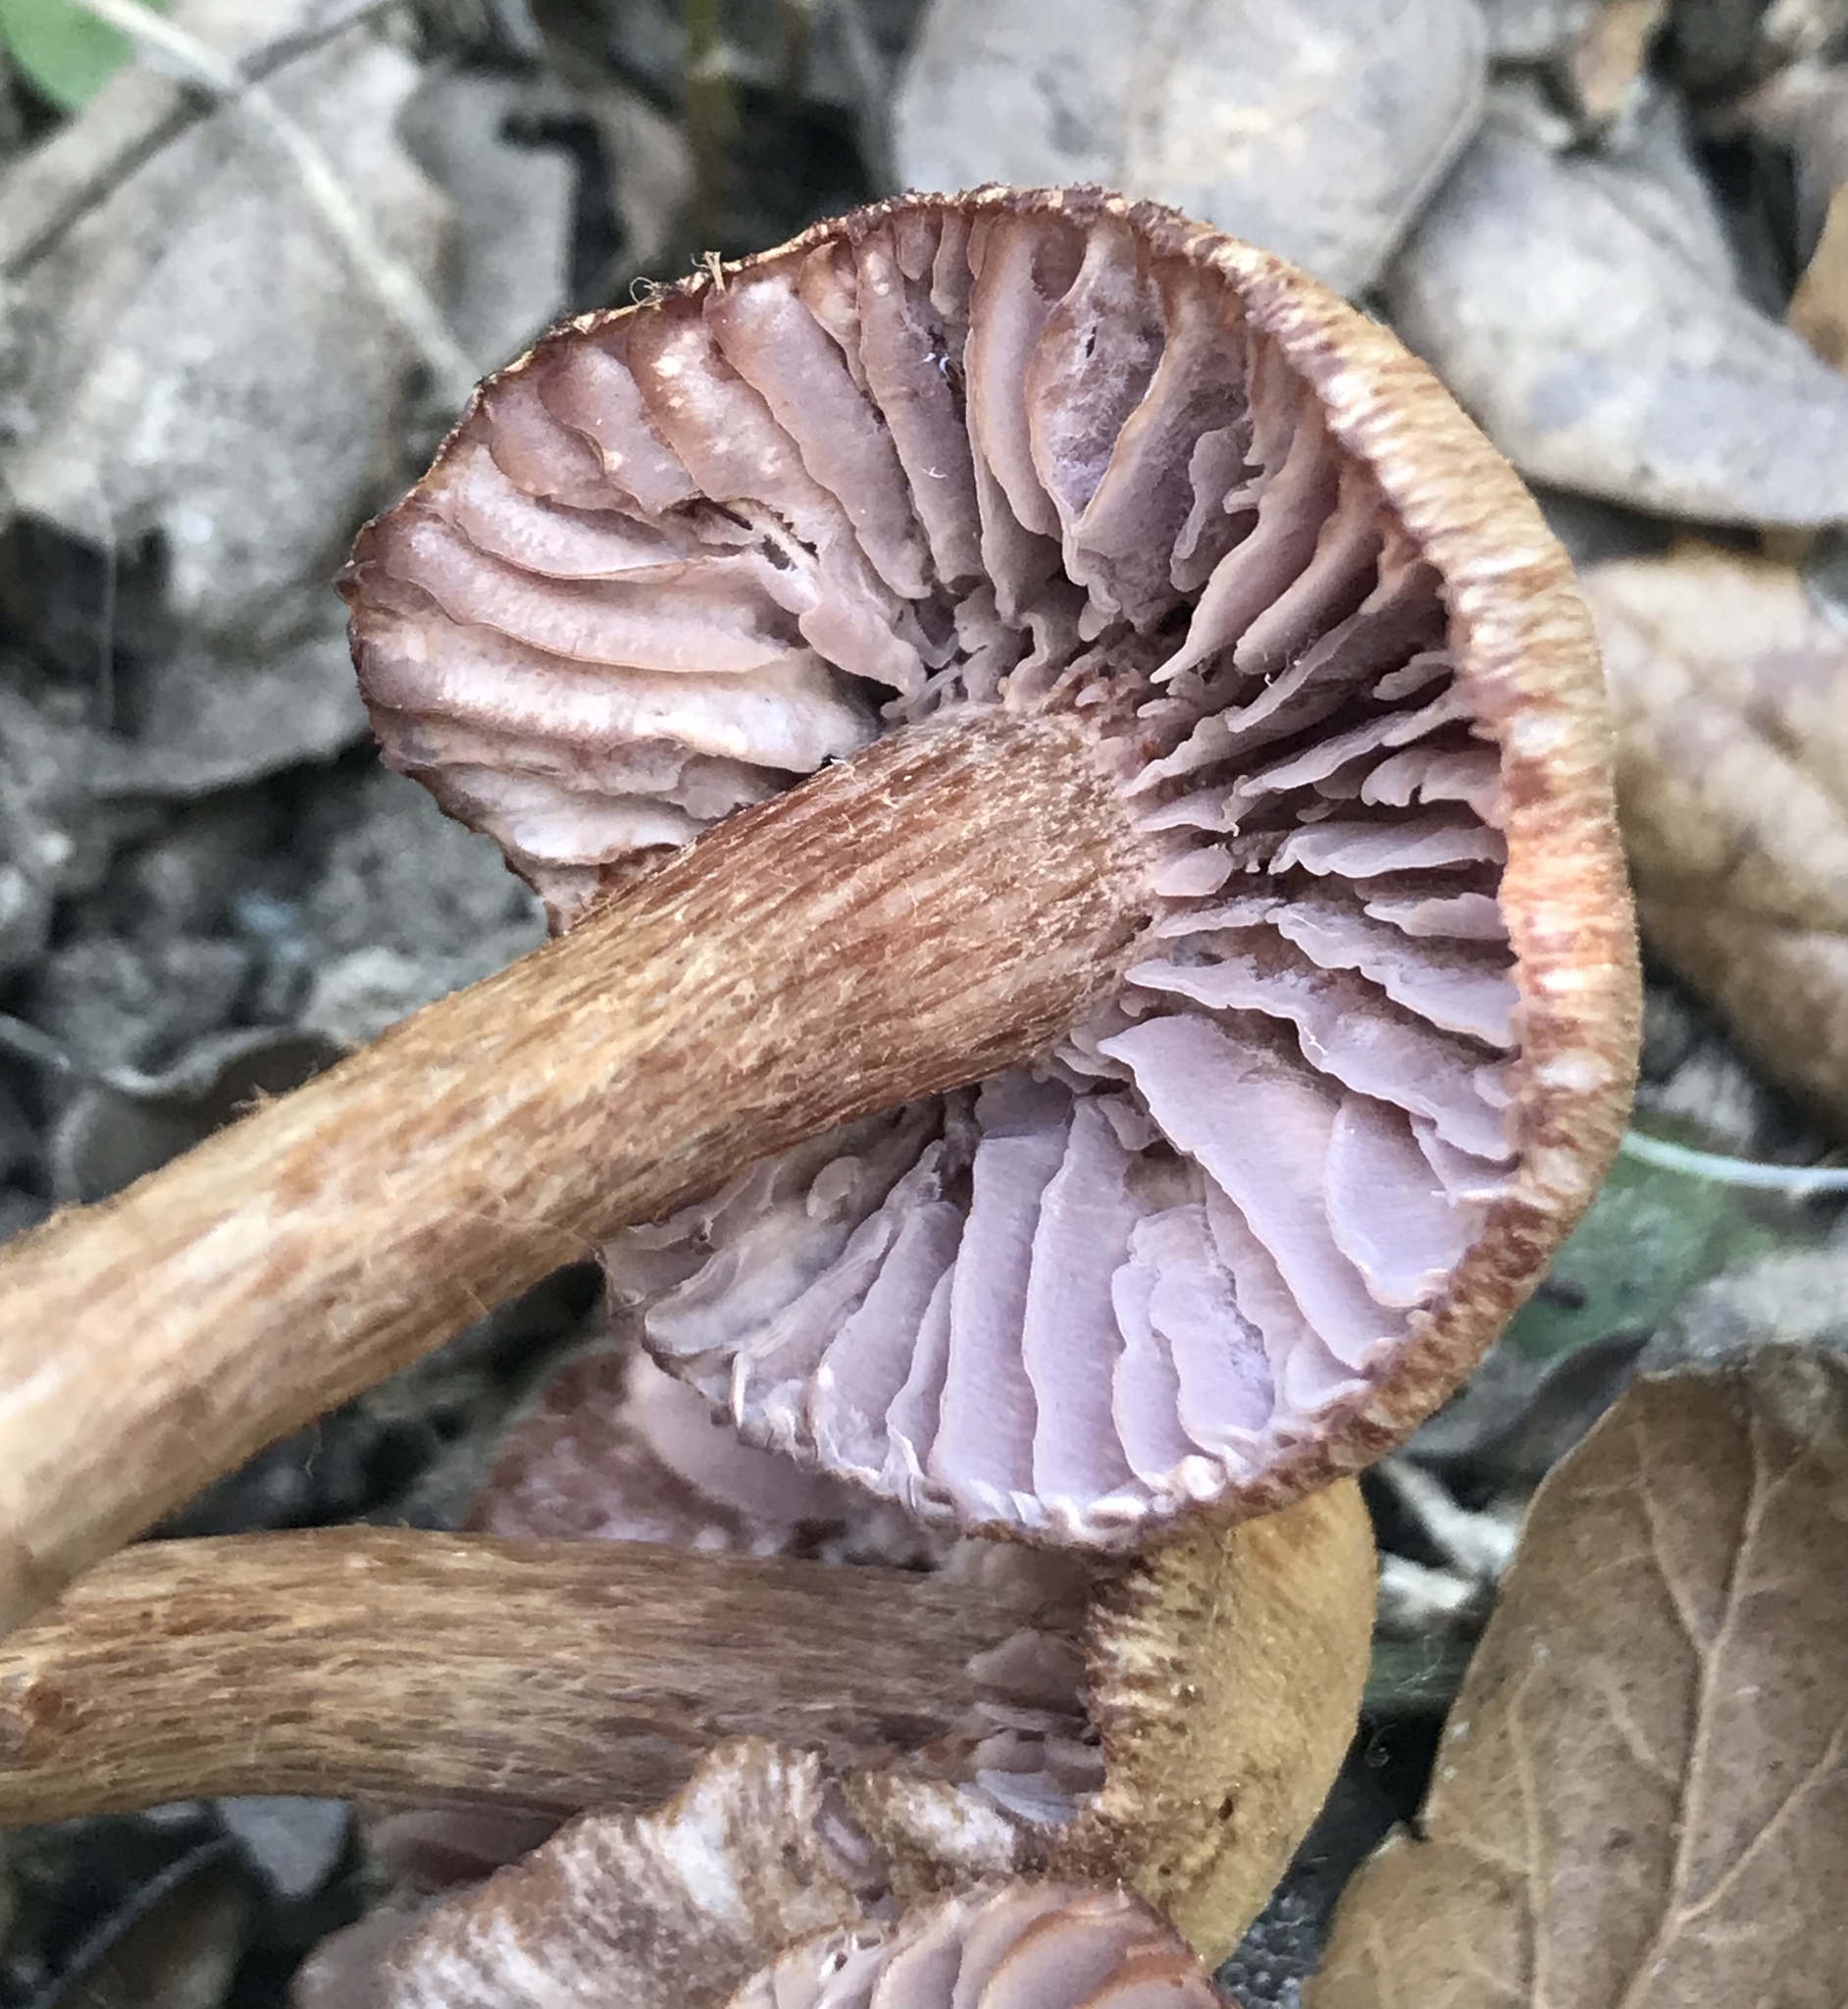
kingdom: Fungi
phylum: Basidiomycota
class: Agaricomycetes
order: Agaricales
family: Hydnangiaceae
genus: Laccaria
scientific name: Laccaria amethysteo-occidentalis
